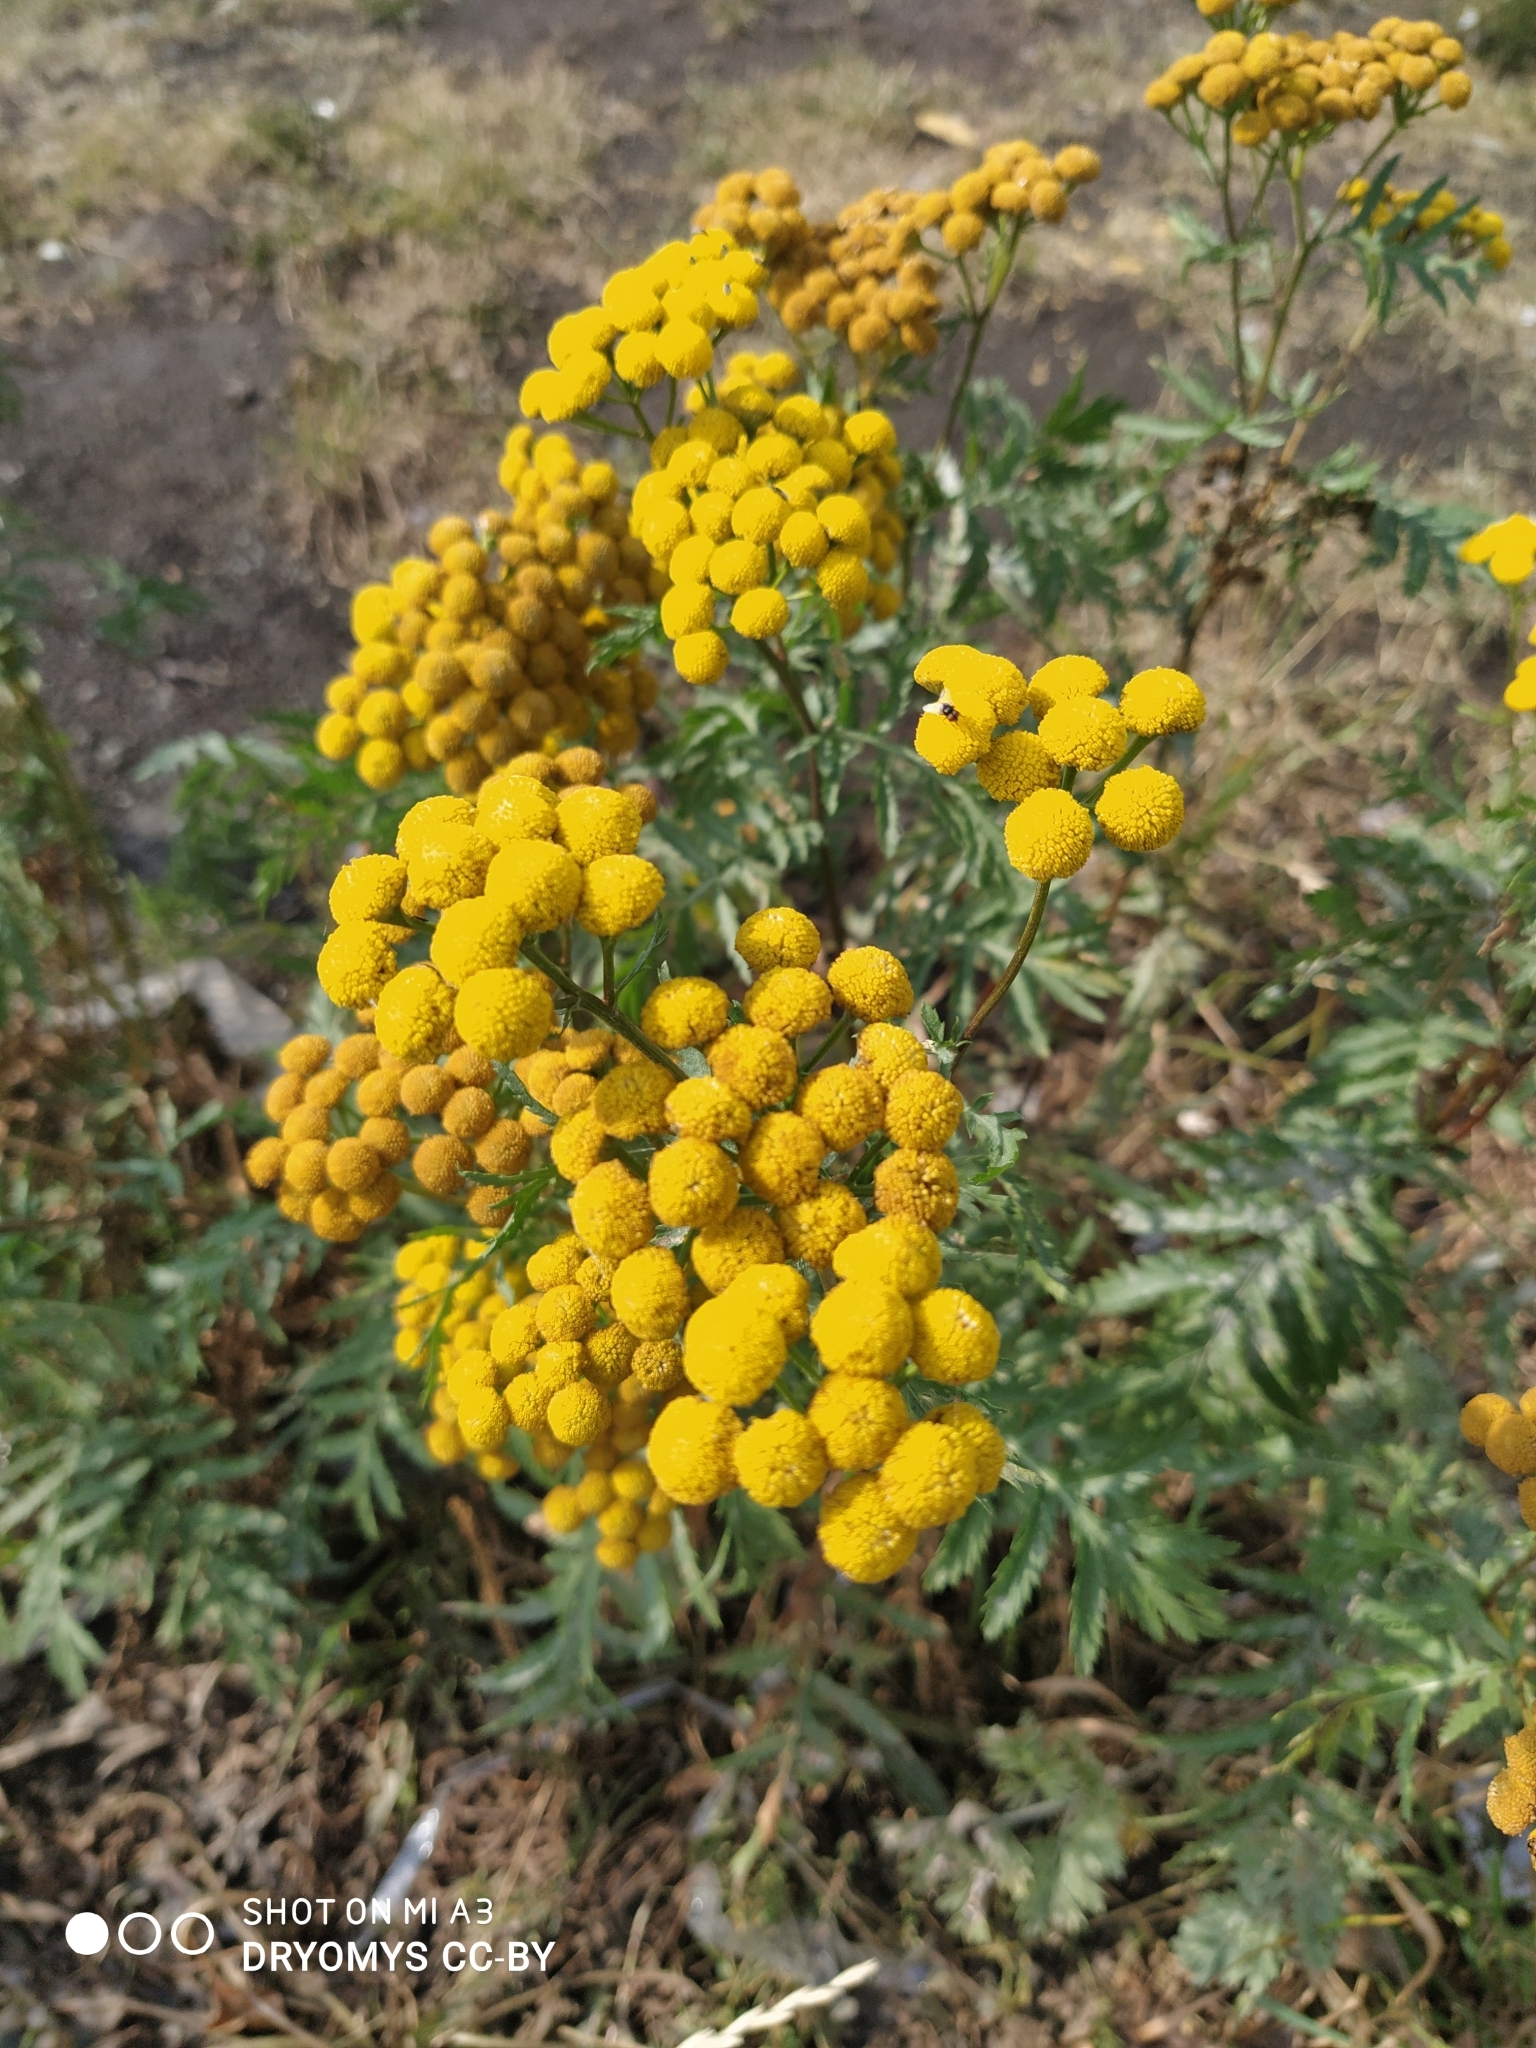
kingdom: Plantae
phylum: Tracheophyta
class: Magnoliopsida
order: Asterales
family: Asteraceae
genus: Tanacetum
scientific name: Tanacetum vulgare
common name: Common tansy
